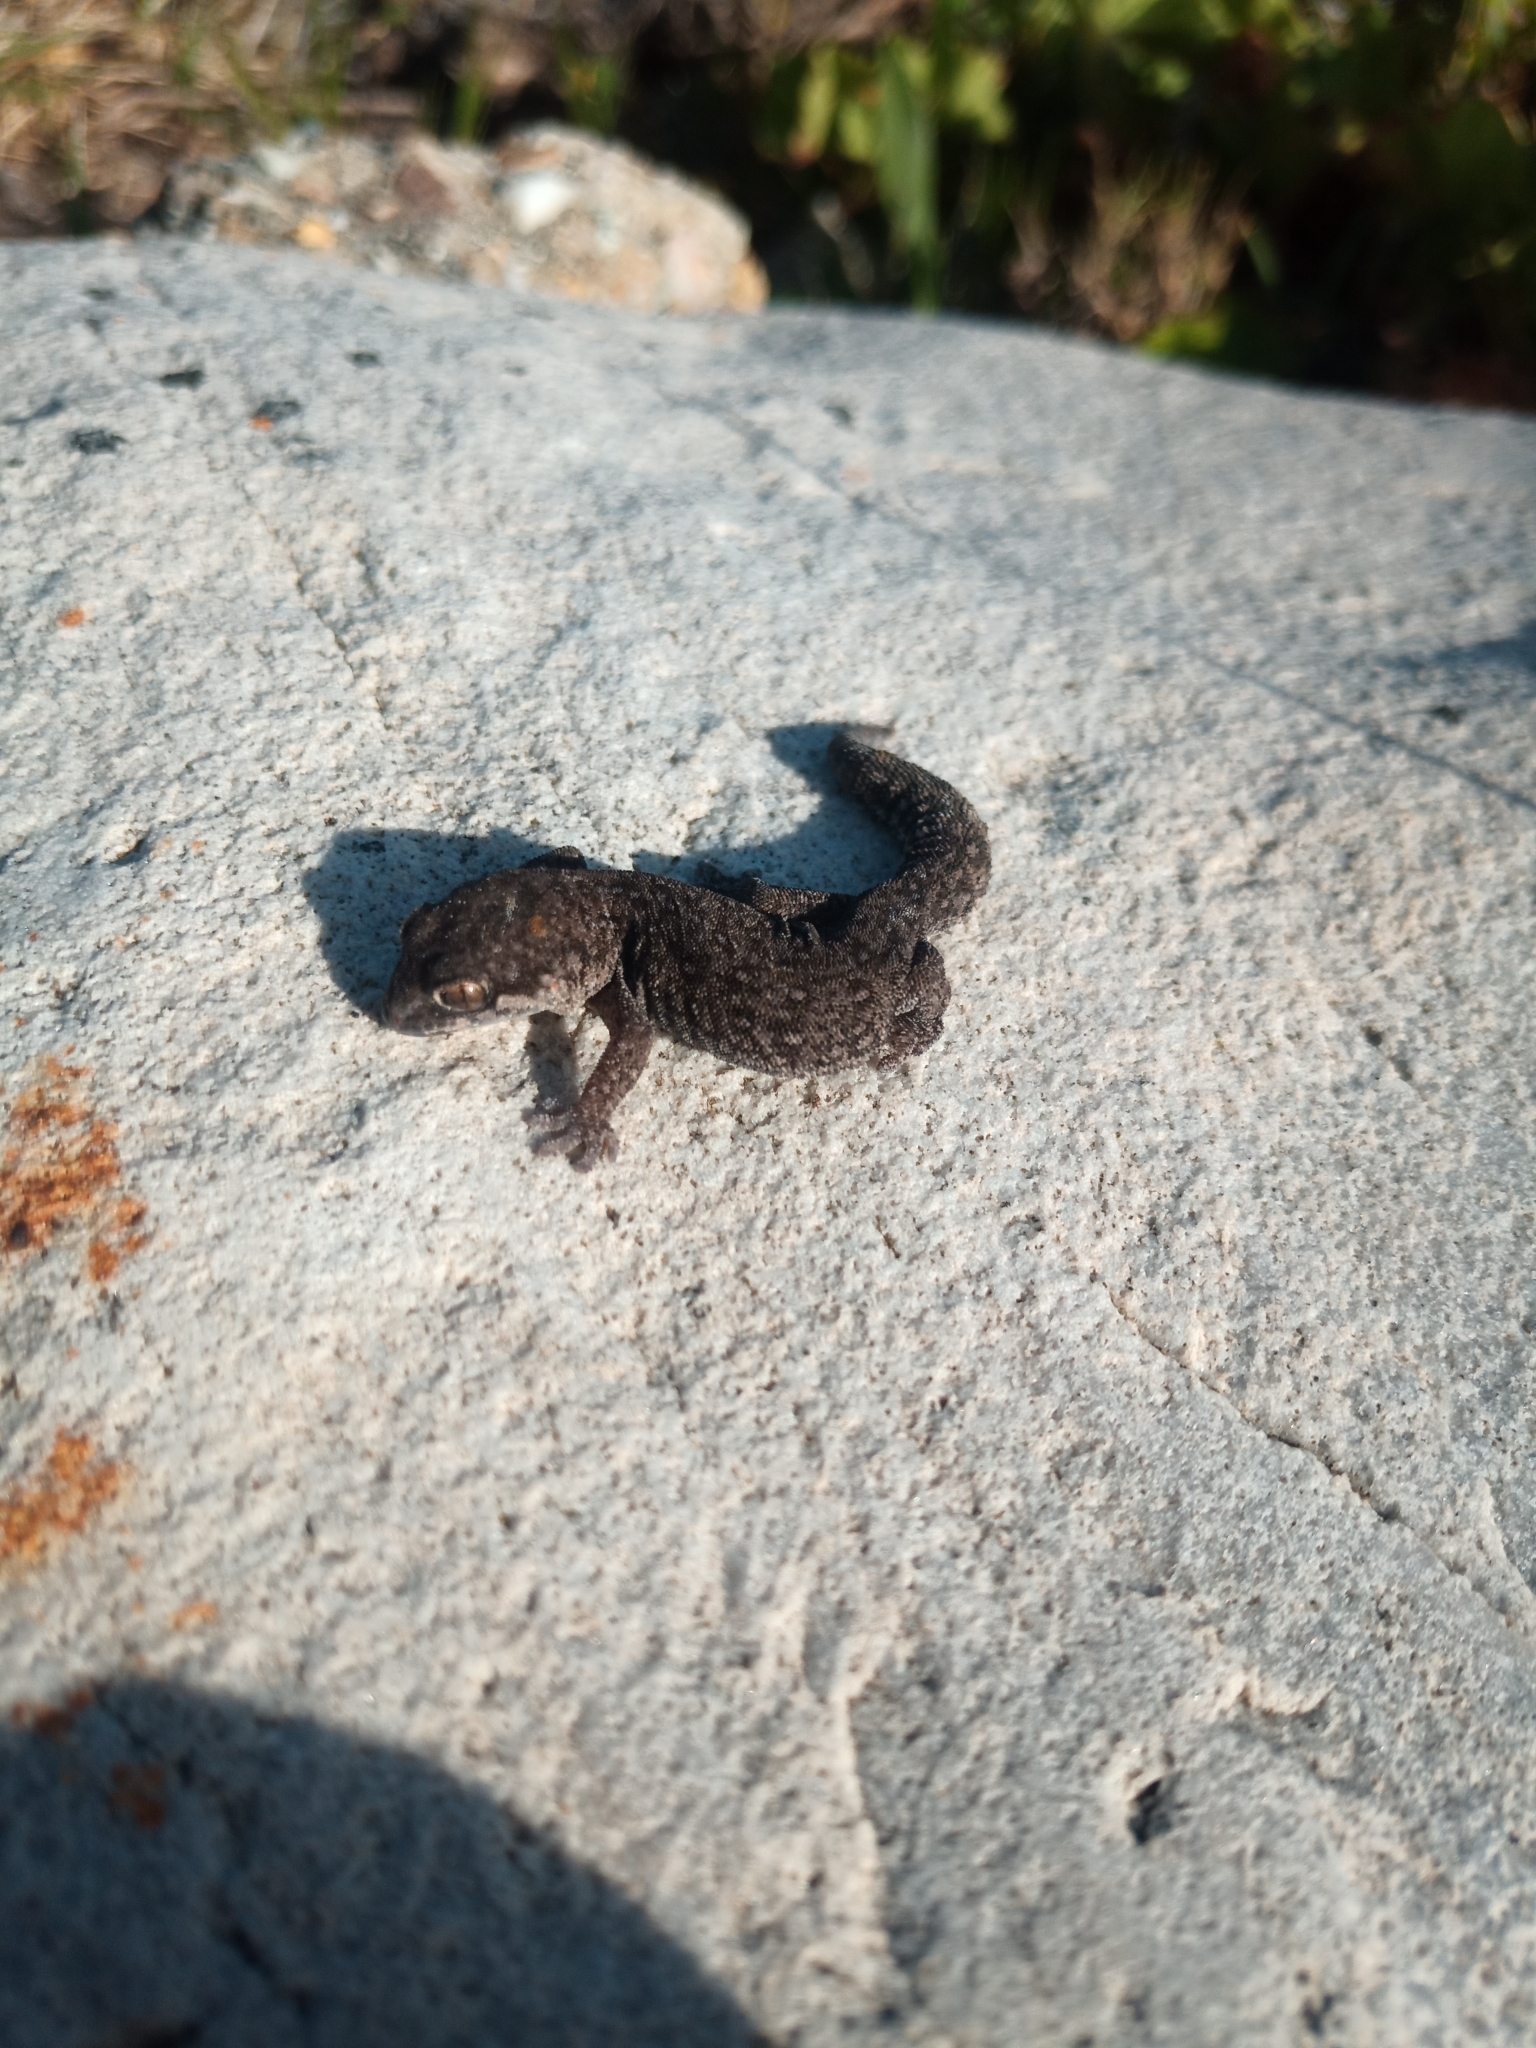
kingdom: Animalia
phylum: Chordata
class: Squamata
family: Gekkonidae
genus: Pachydactylus
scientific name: Pachydactylus geitje
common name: Ocellated thick-toed gecko
